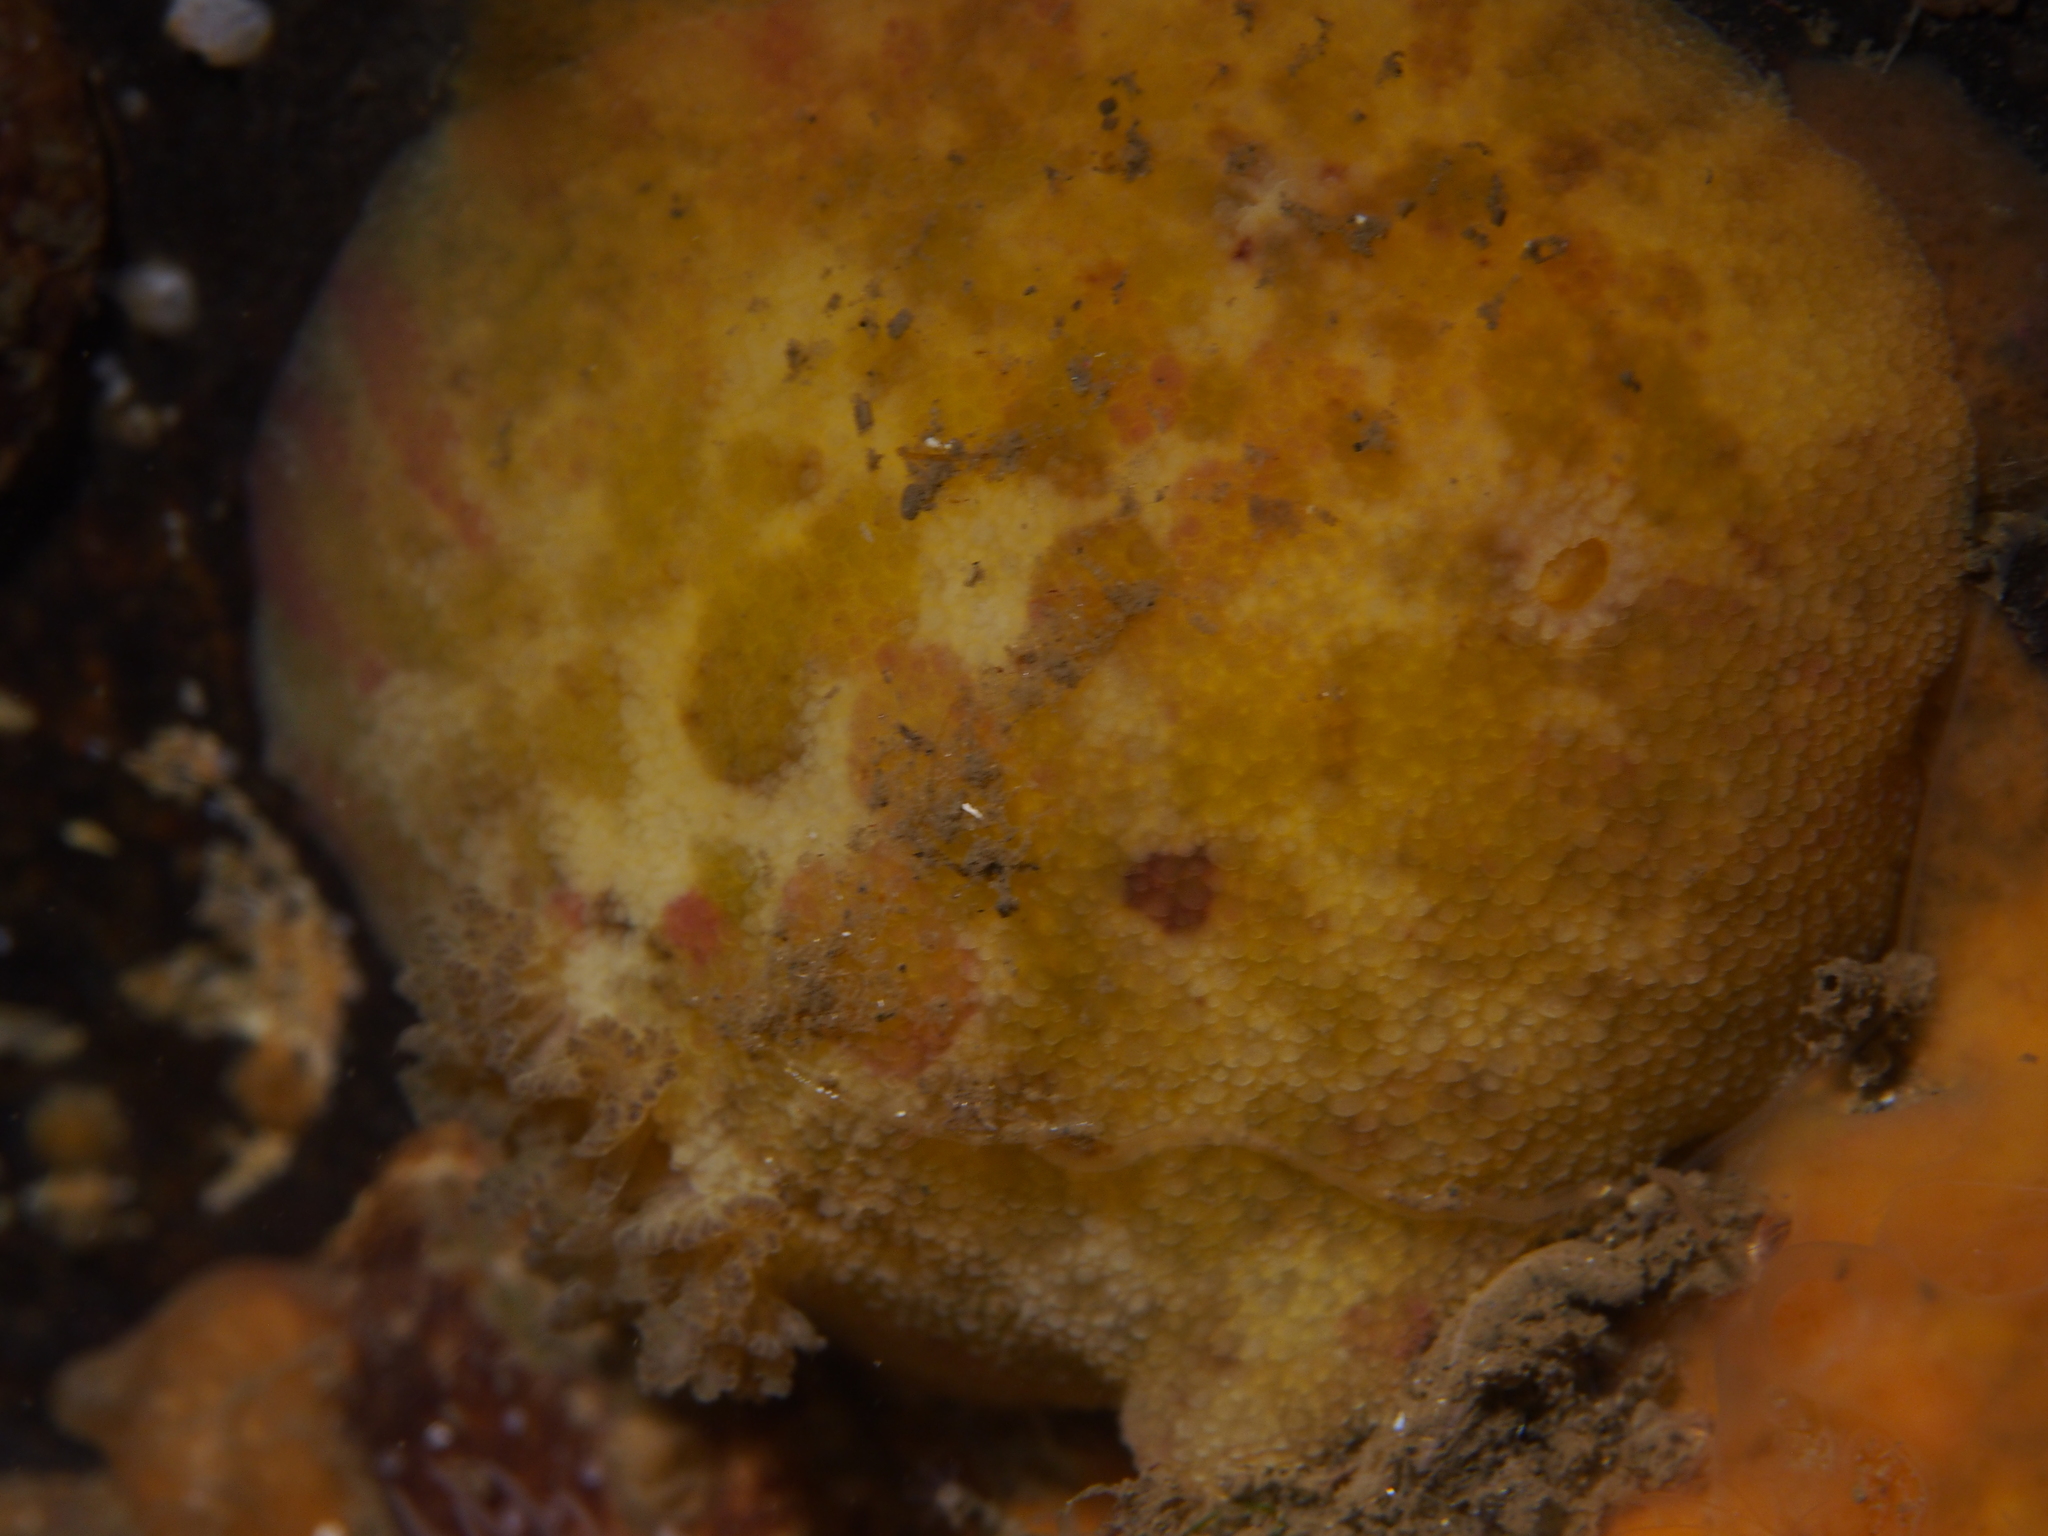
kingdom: Animalia
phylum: Mollusca
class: Gastropoda
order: Nudibranchia
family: Dorididae
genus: Doris
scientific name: Doris pseudoargus
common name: Sea lemon
